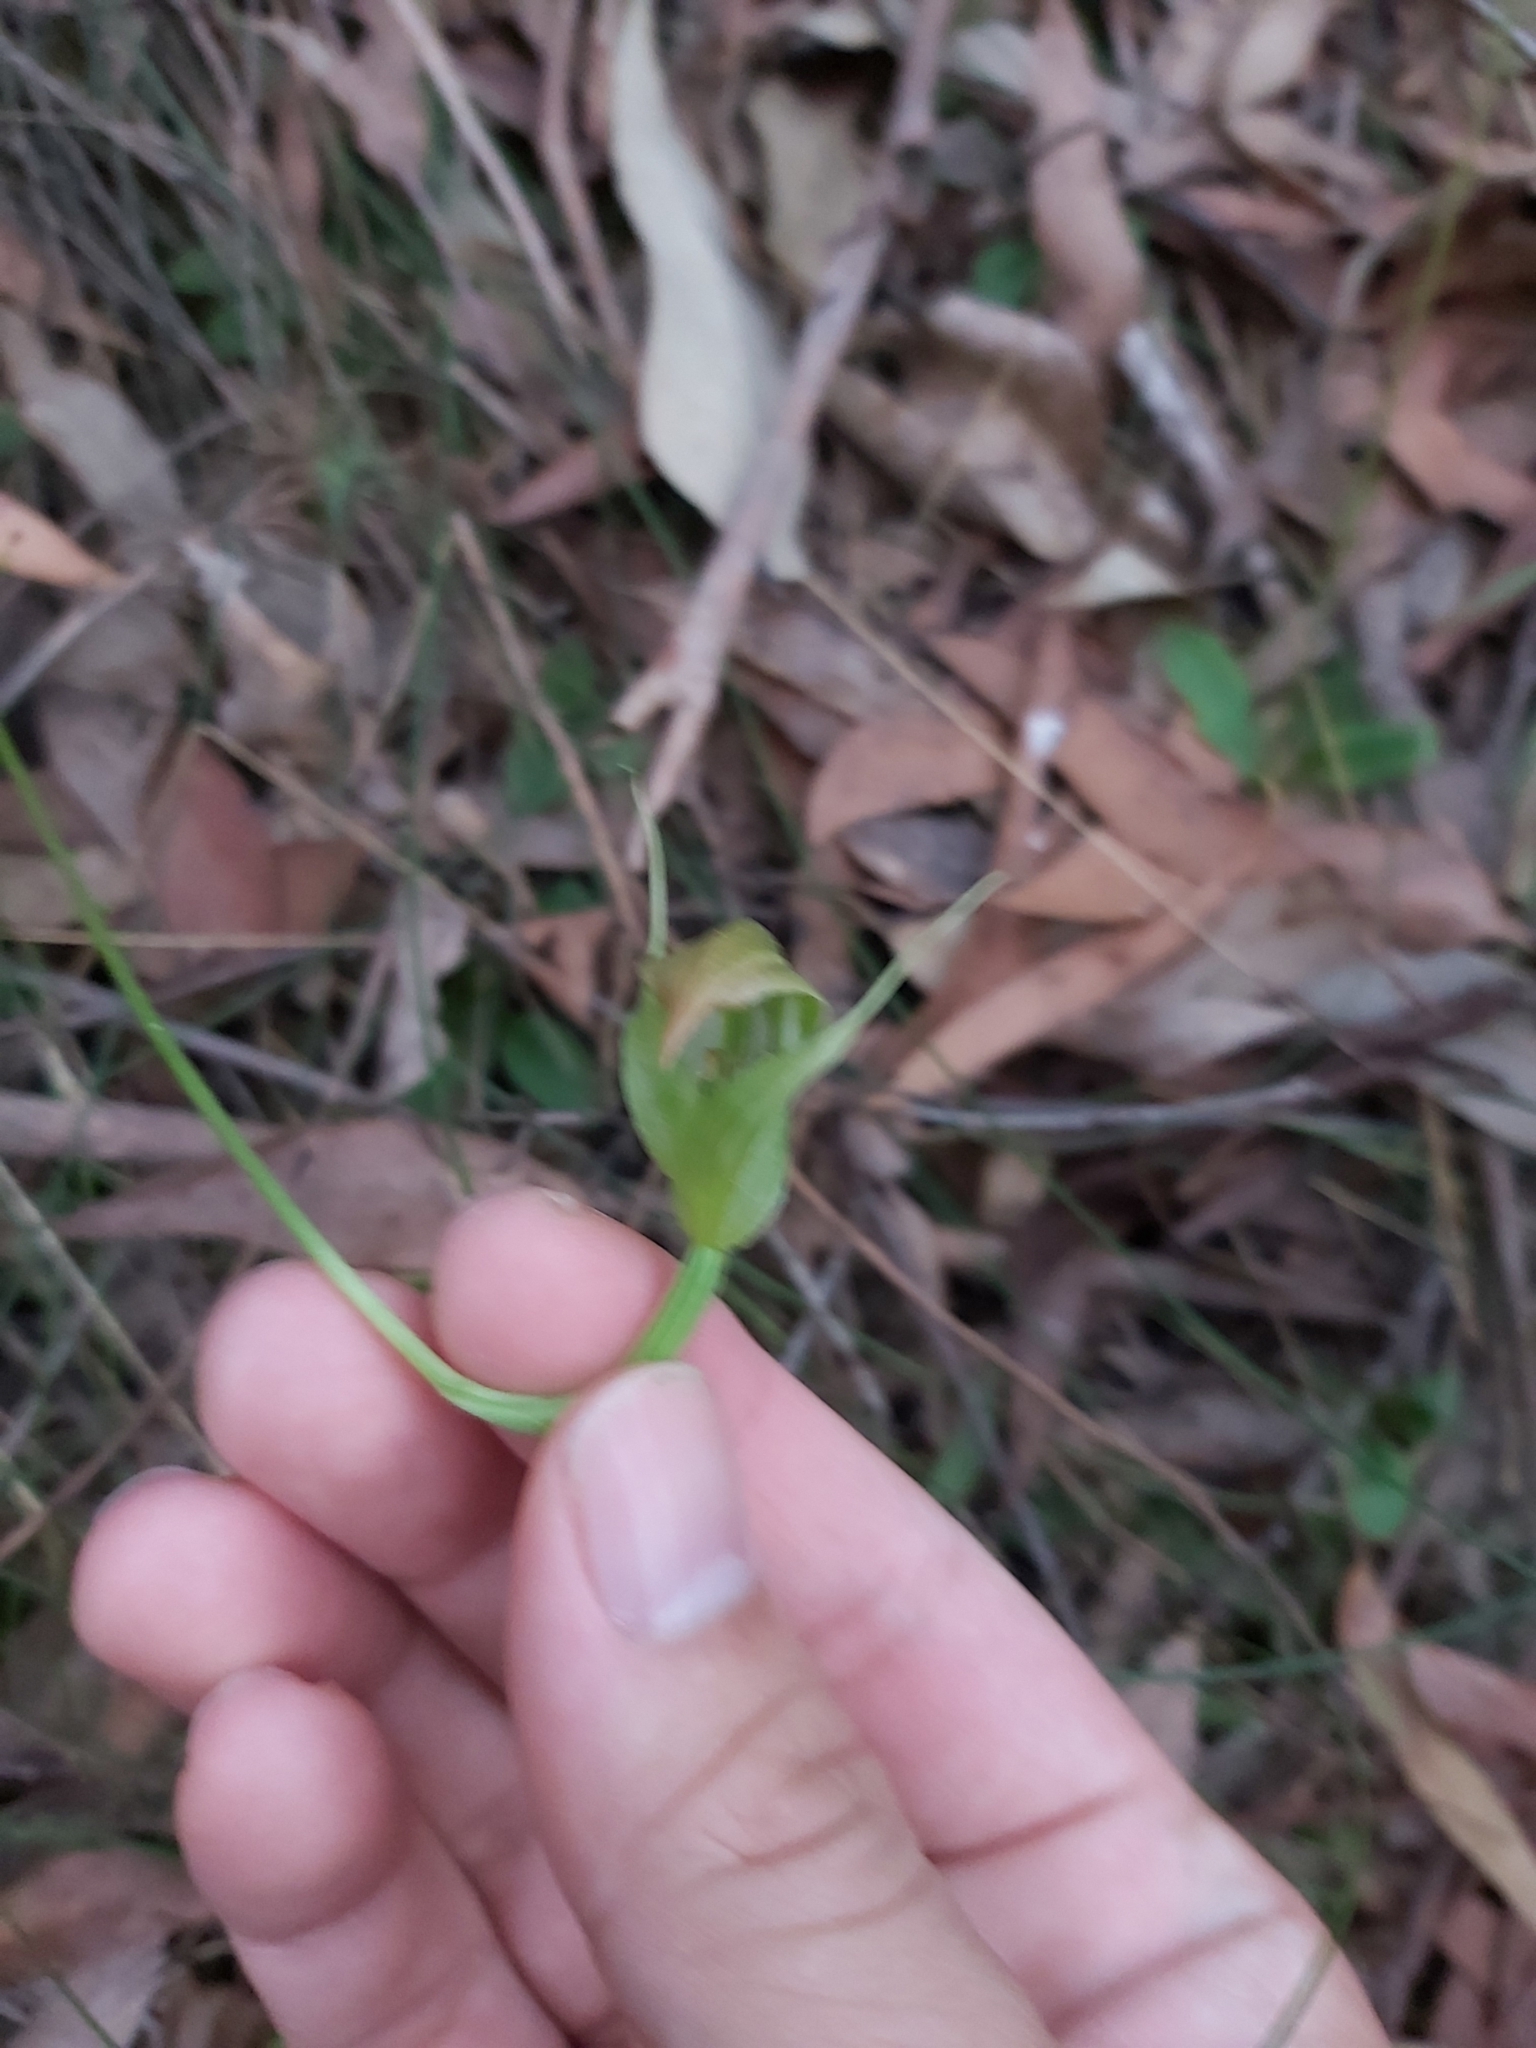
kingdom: Plantae
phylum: Tracheophyta
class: Liliopsida
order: Asparagales
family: Orchidaceae
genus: Pterostylis
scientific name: Pterostylis acuminata
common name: Pointed greenhood
